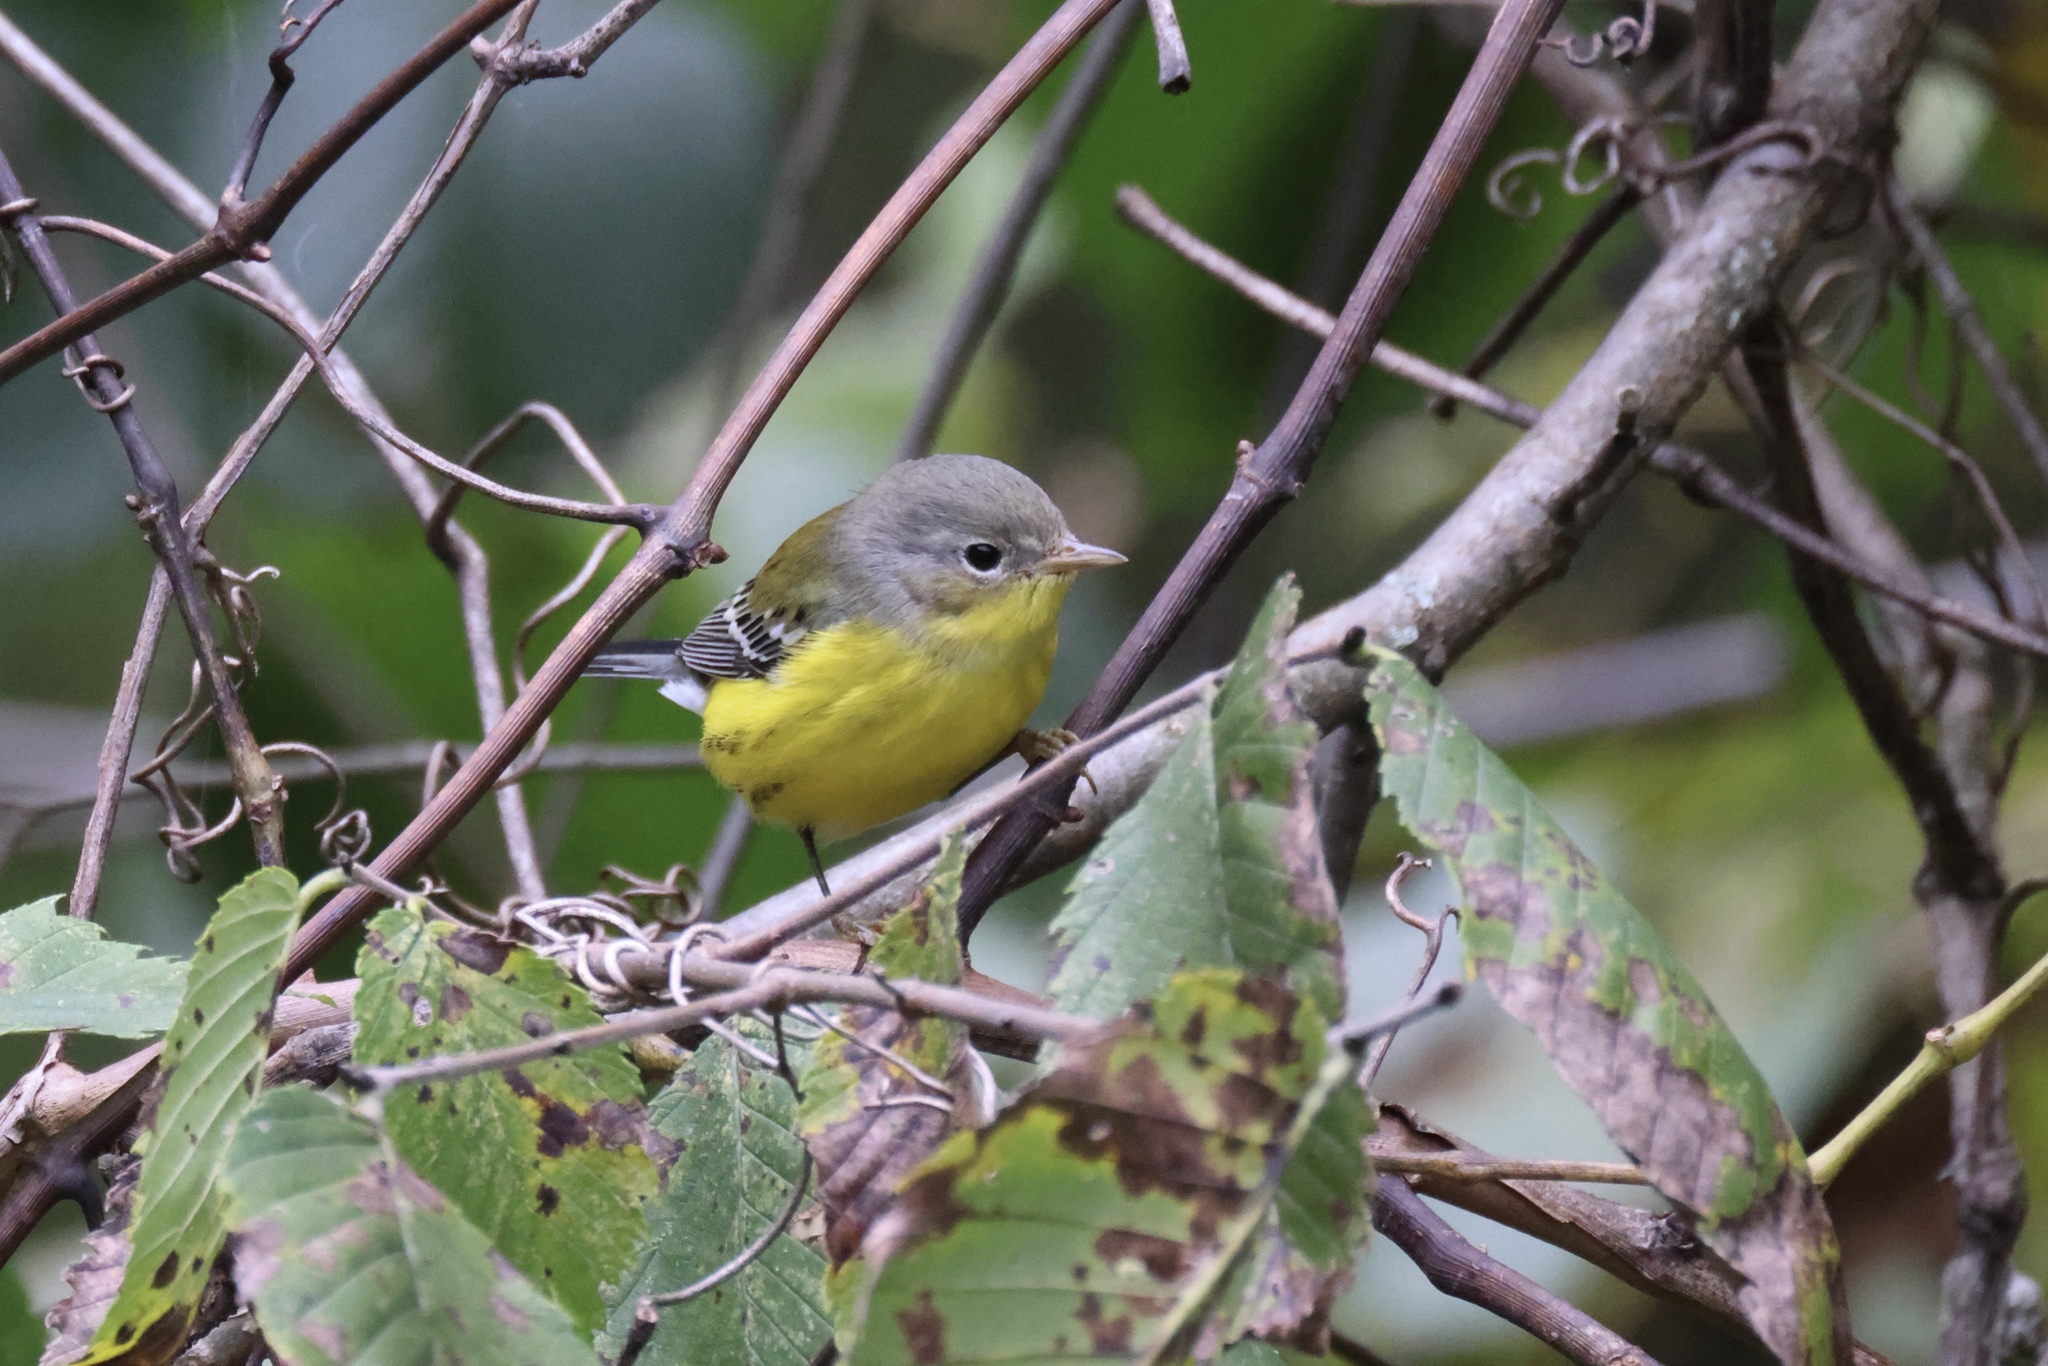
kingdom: Animalia
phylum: Chordata
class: Aves
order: Passeriformes
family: Parulidae
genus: Setophaga
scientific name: Setophaga magnolia
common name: Magnolia warbler
